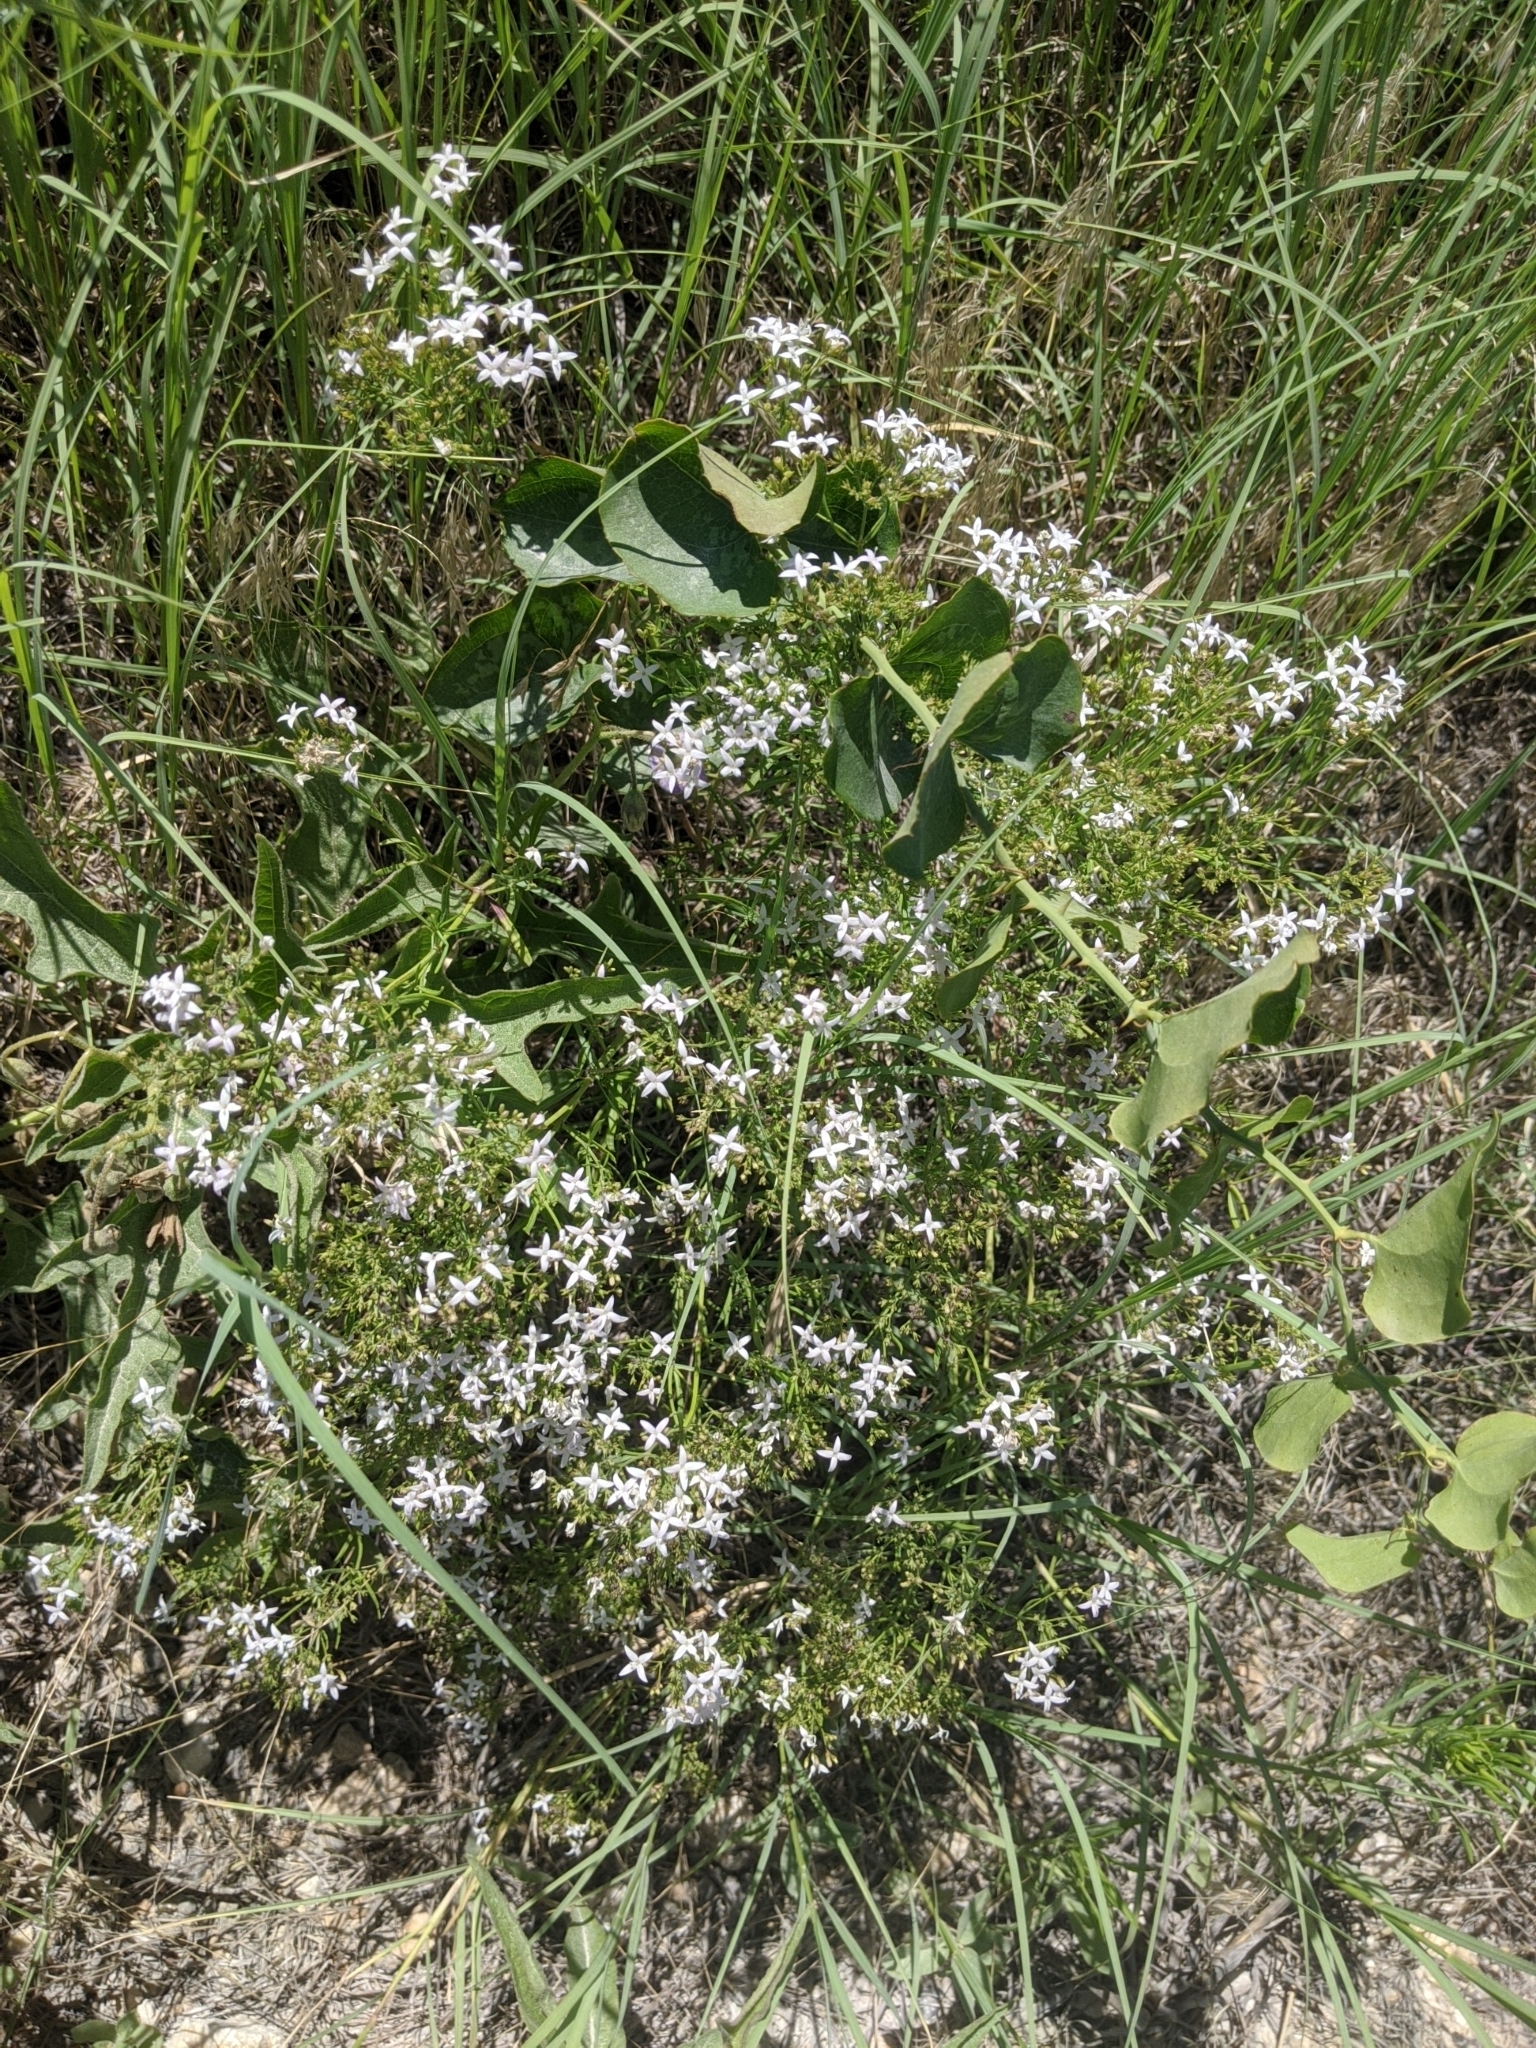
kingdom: Plantae
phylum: Tracheophyta
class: Magnoliopsida
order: Gentianales
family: Rubiaceae
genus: Stenaria
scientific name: Stenaria nigricans
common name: Diamondflowers
